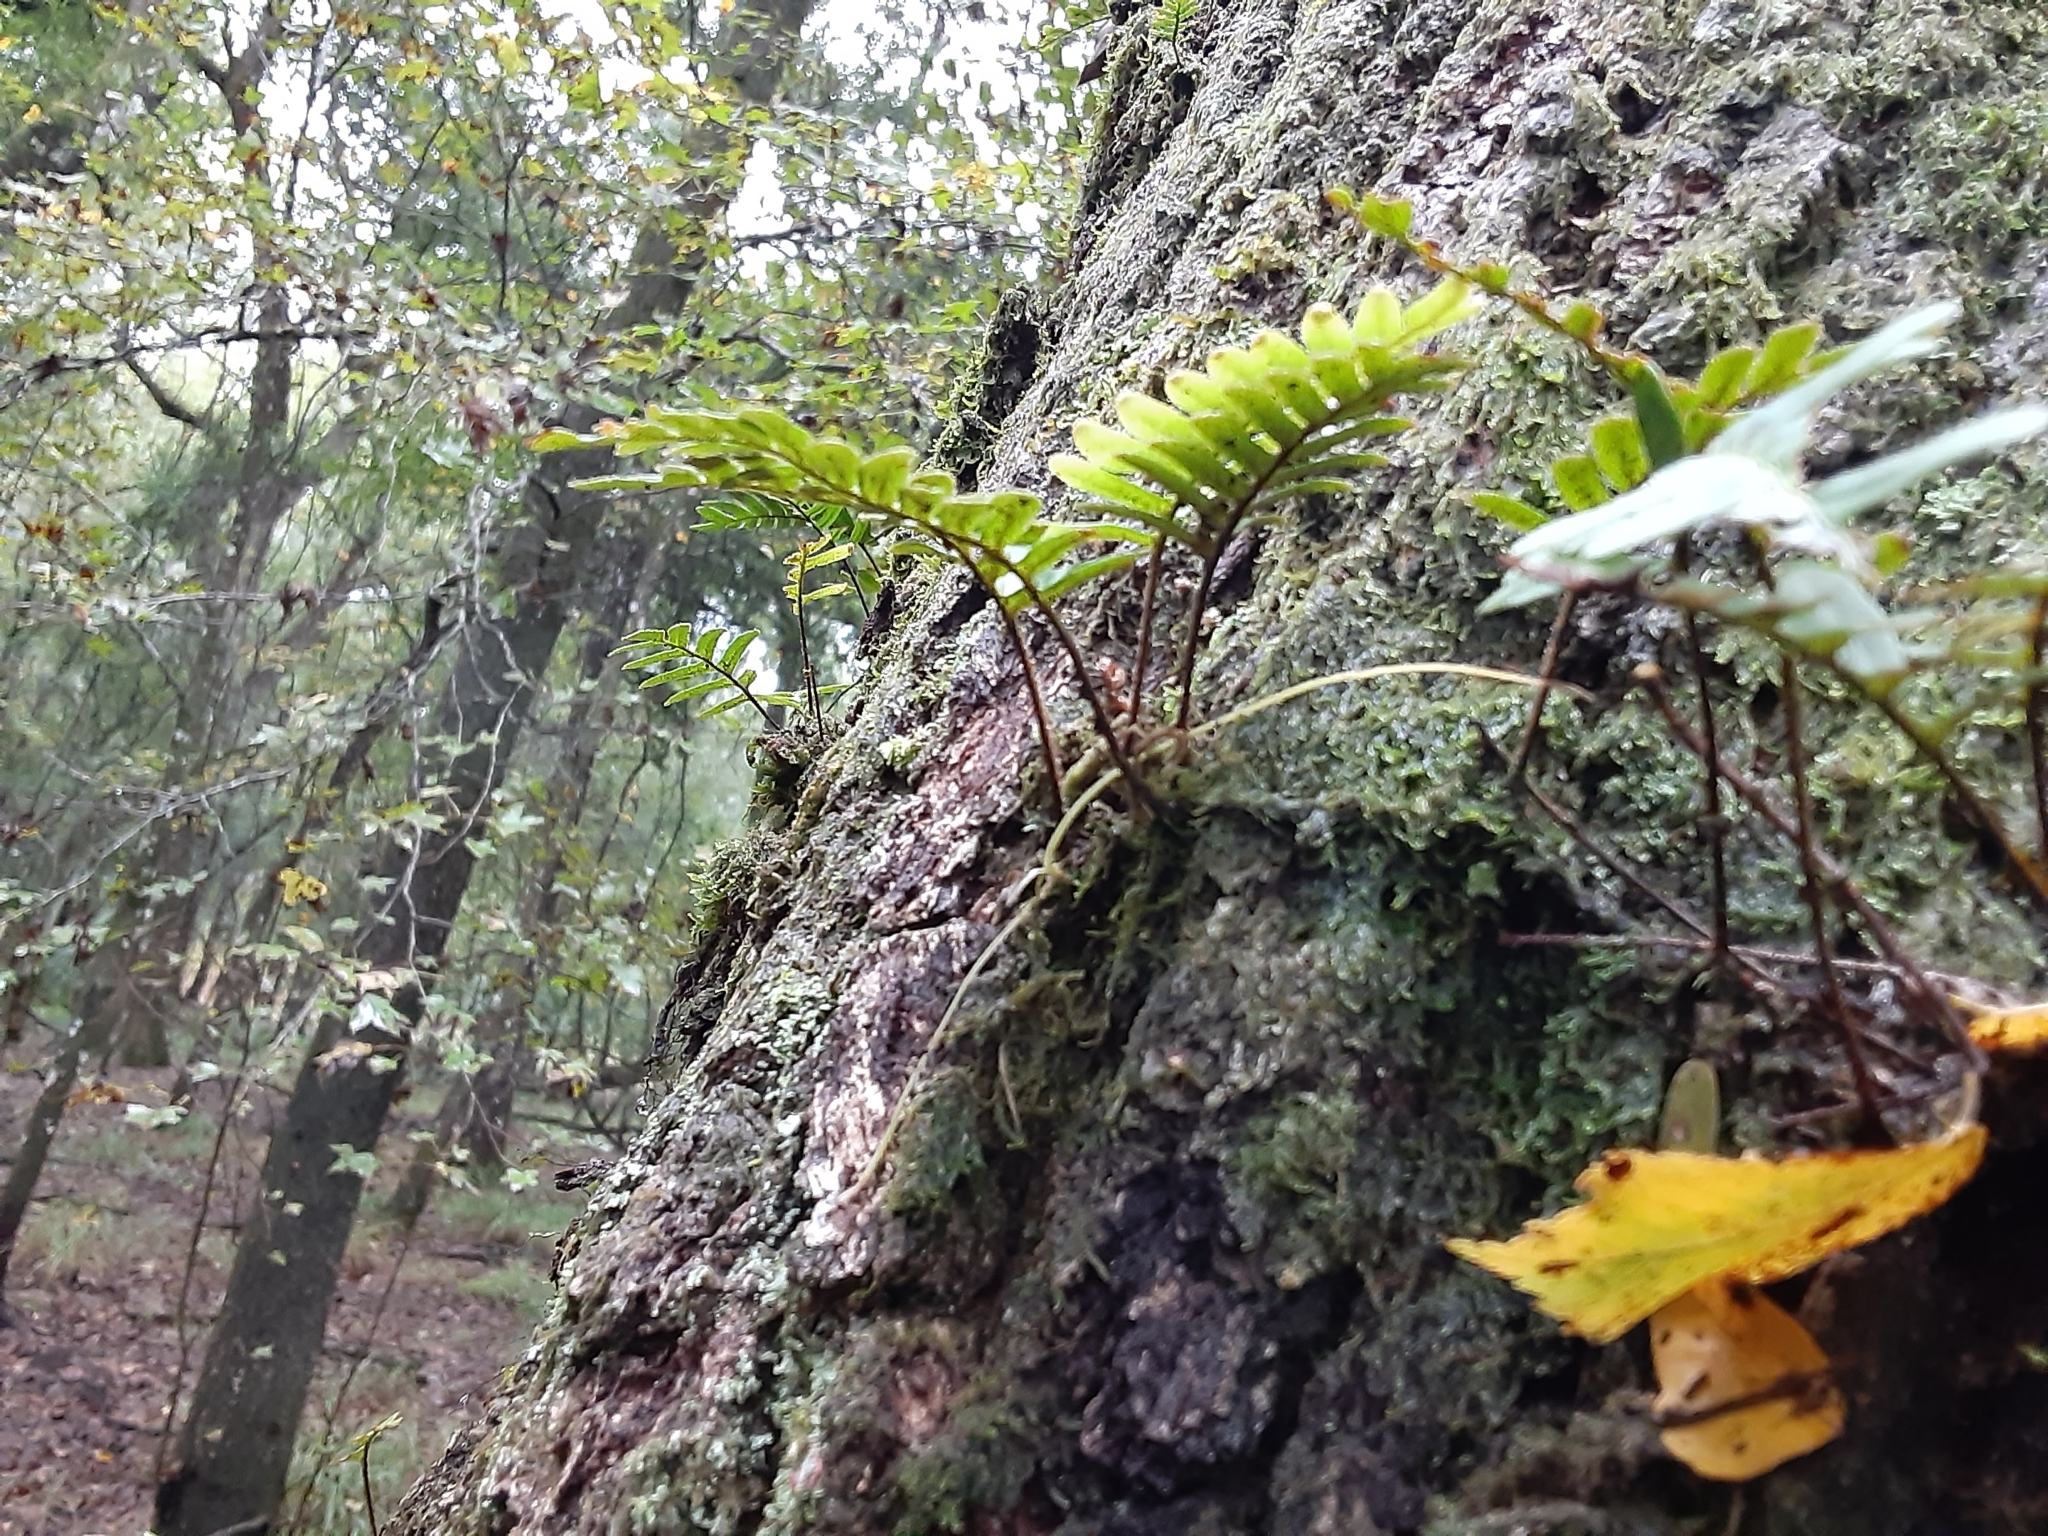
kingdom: Plantae
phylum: Tracheophyta
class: Polypodiopsida
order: Polypodiales
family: Polypodiaceae
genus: Pleopeltis
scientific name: Pleopeltis michauxiana
